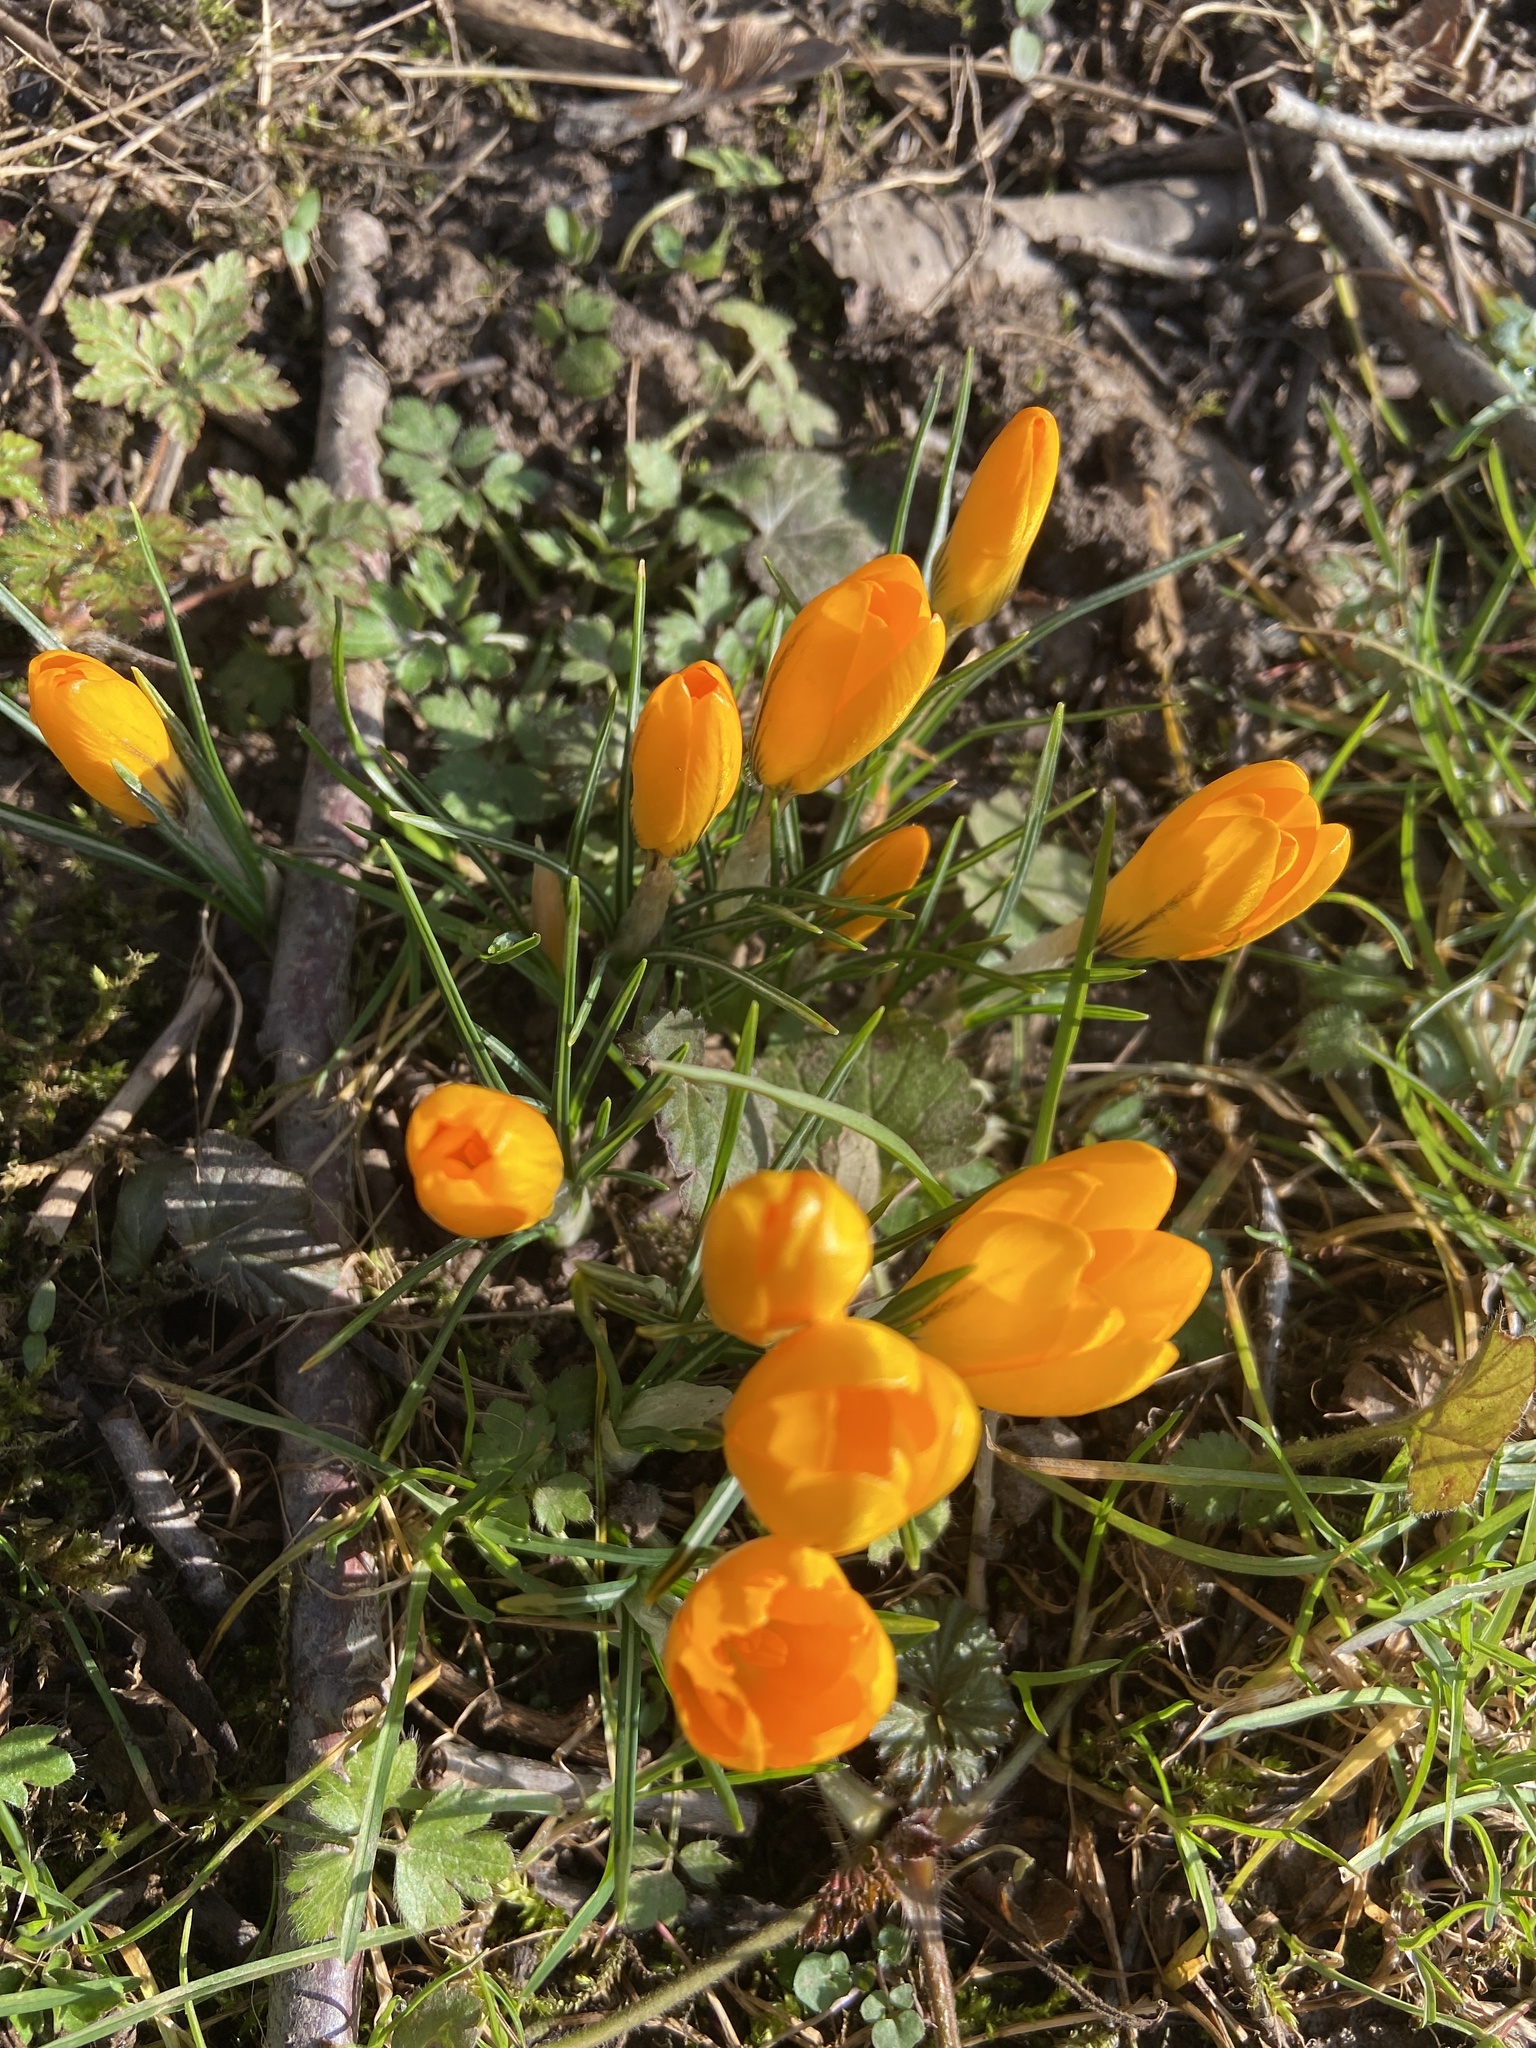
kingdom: Plantae
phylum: Tracheophyta
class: Liliopsida
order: Asparagales
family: Iridaceae
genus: Crocus
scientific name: Crocus luteus
